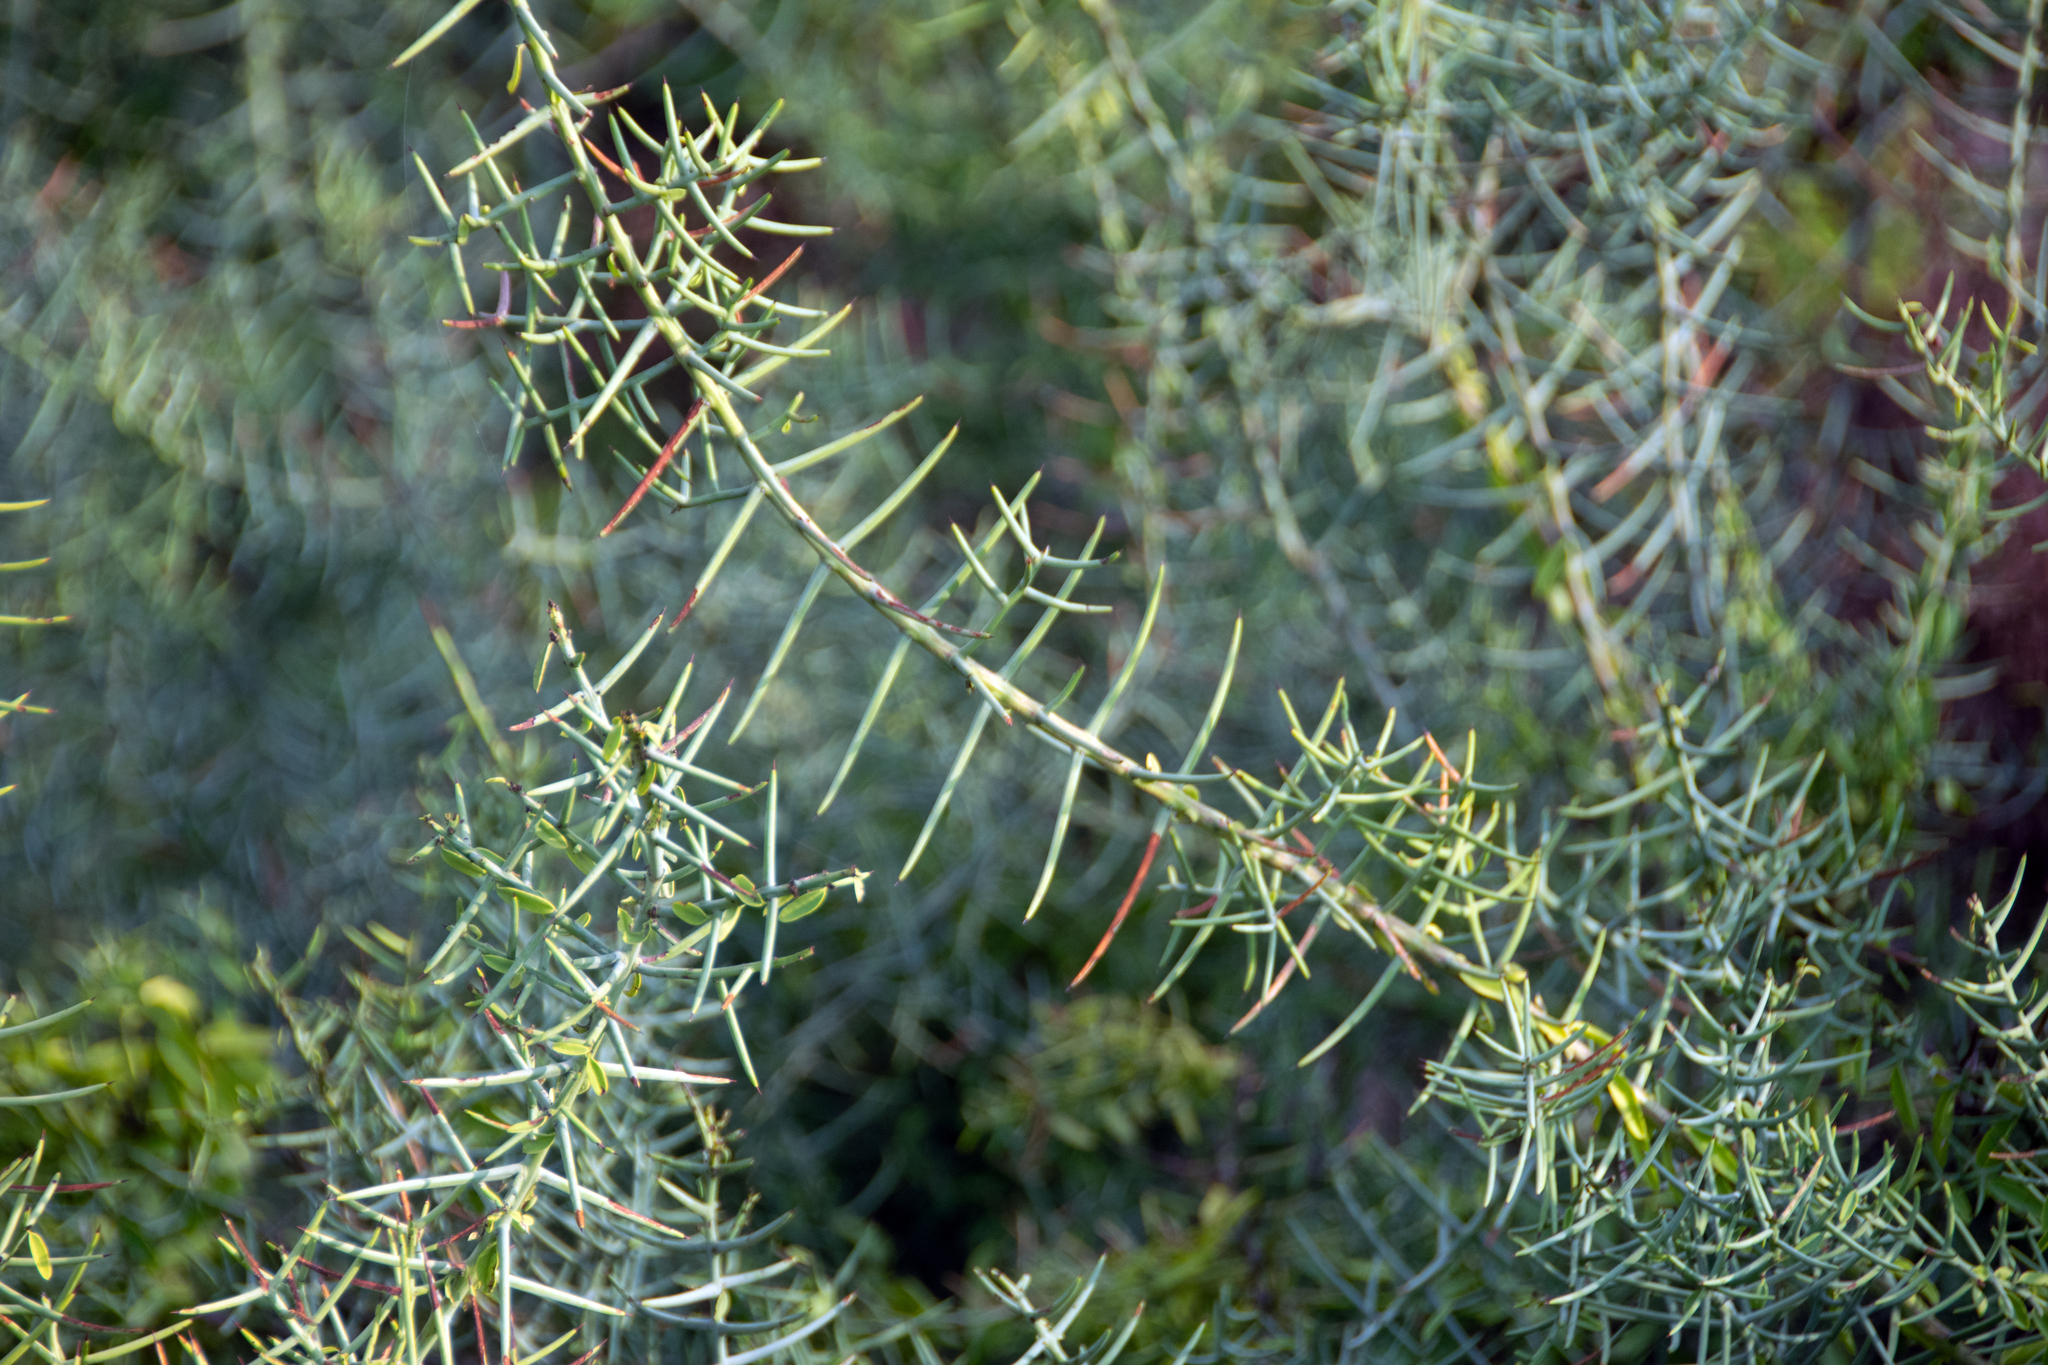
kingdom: Plantae
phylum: Tracheophyta
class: Magnoliopsida
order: Rosales
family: Rhamnaceae
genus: Scutia
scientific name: Scutia spicata
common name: Spiny bush
